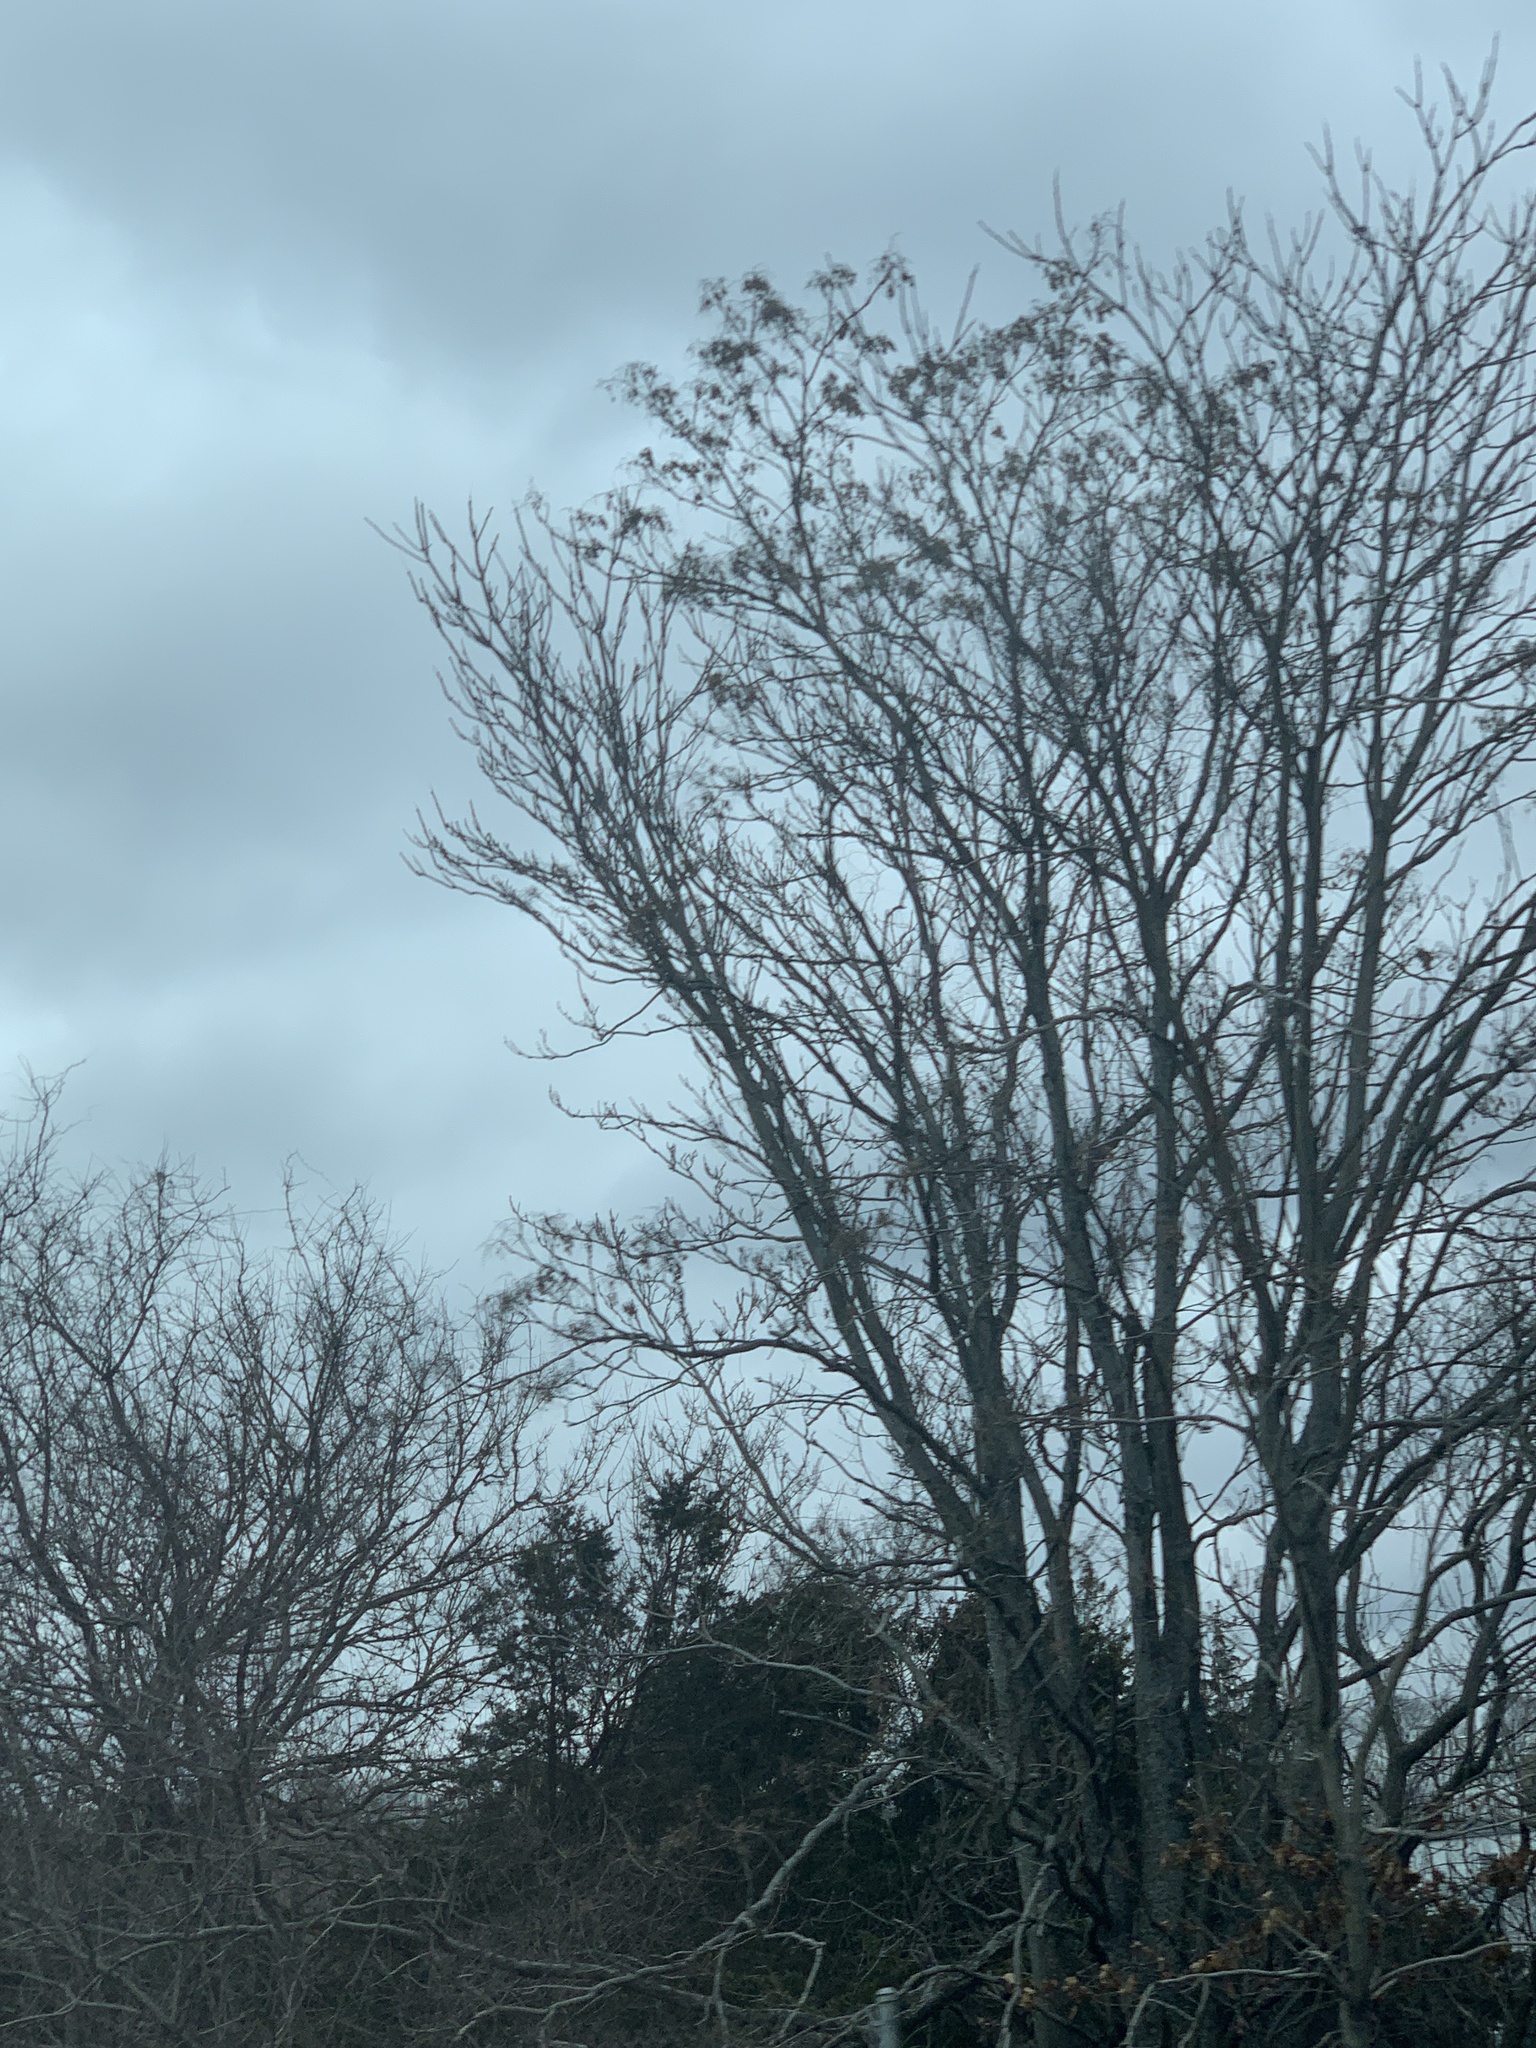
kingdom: Plantae
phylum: Tracheophyta
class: Magnoliopsida
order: Sapindales
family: Simaroubaceae
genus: Ailanthus
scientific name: Ailanthus altissima
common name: Tree-of-heaven
